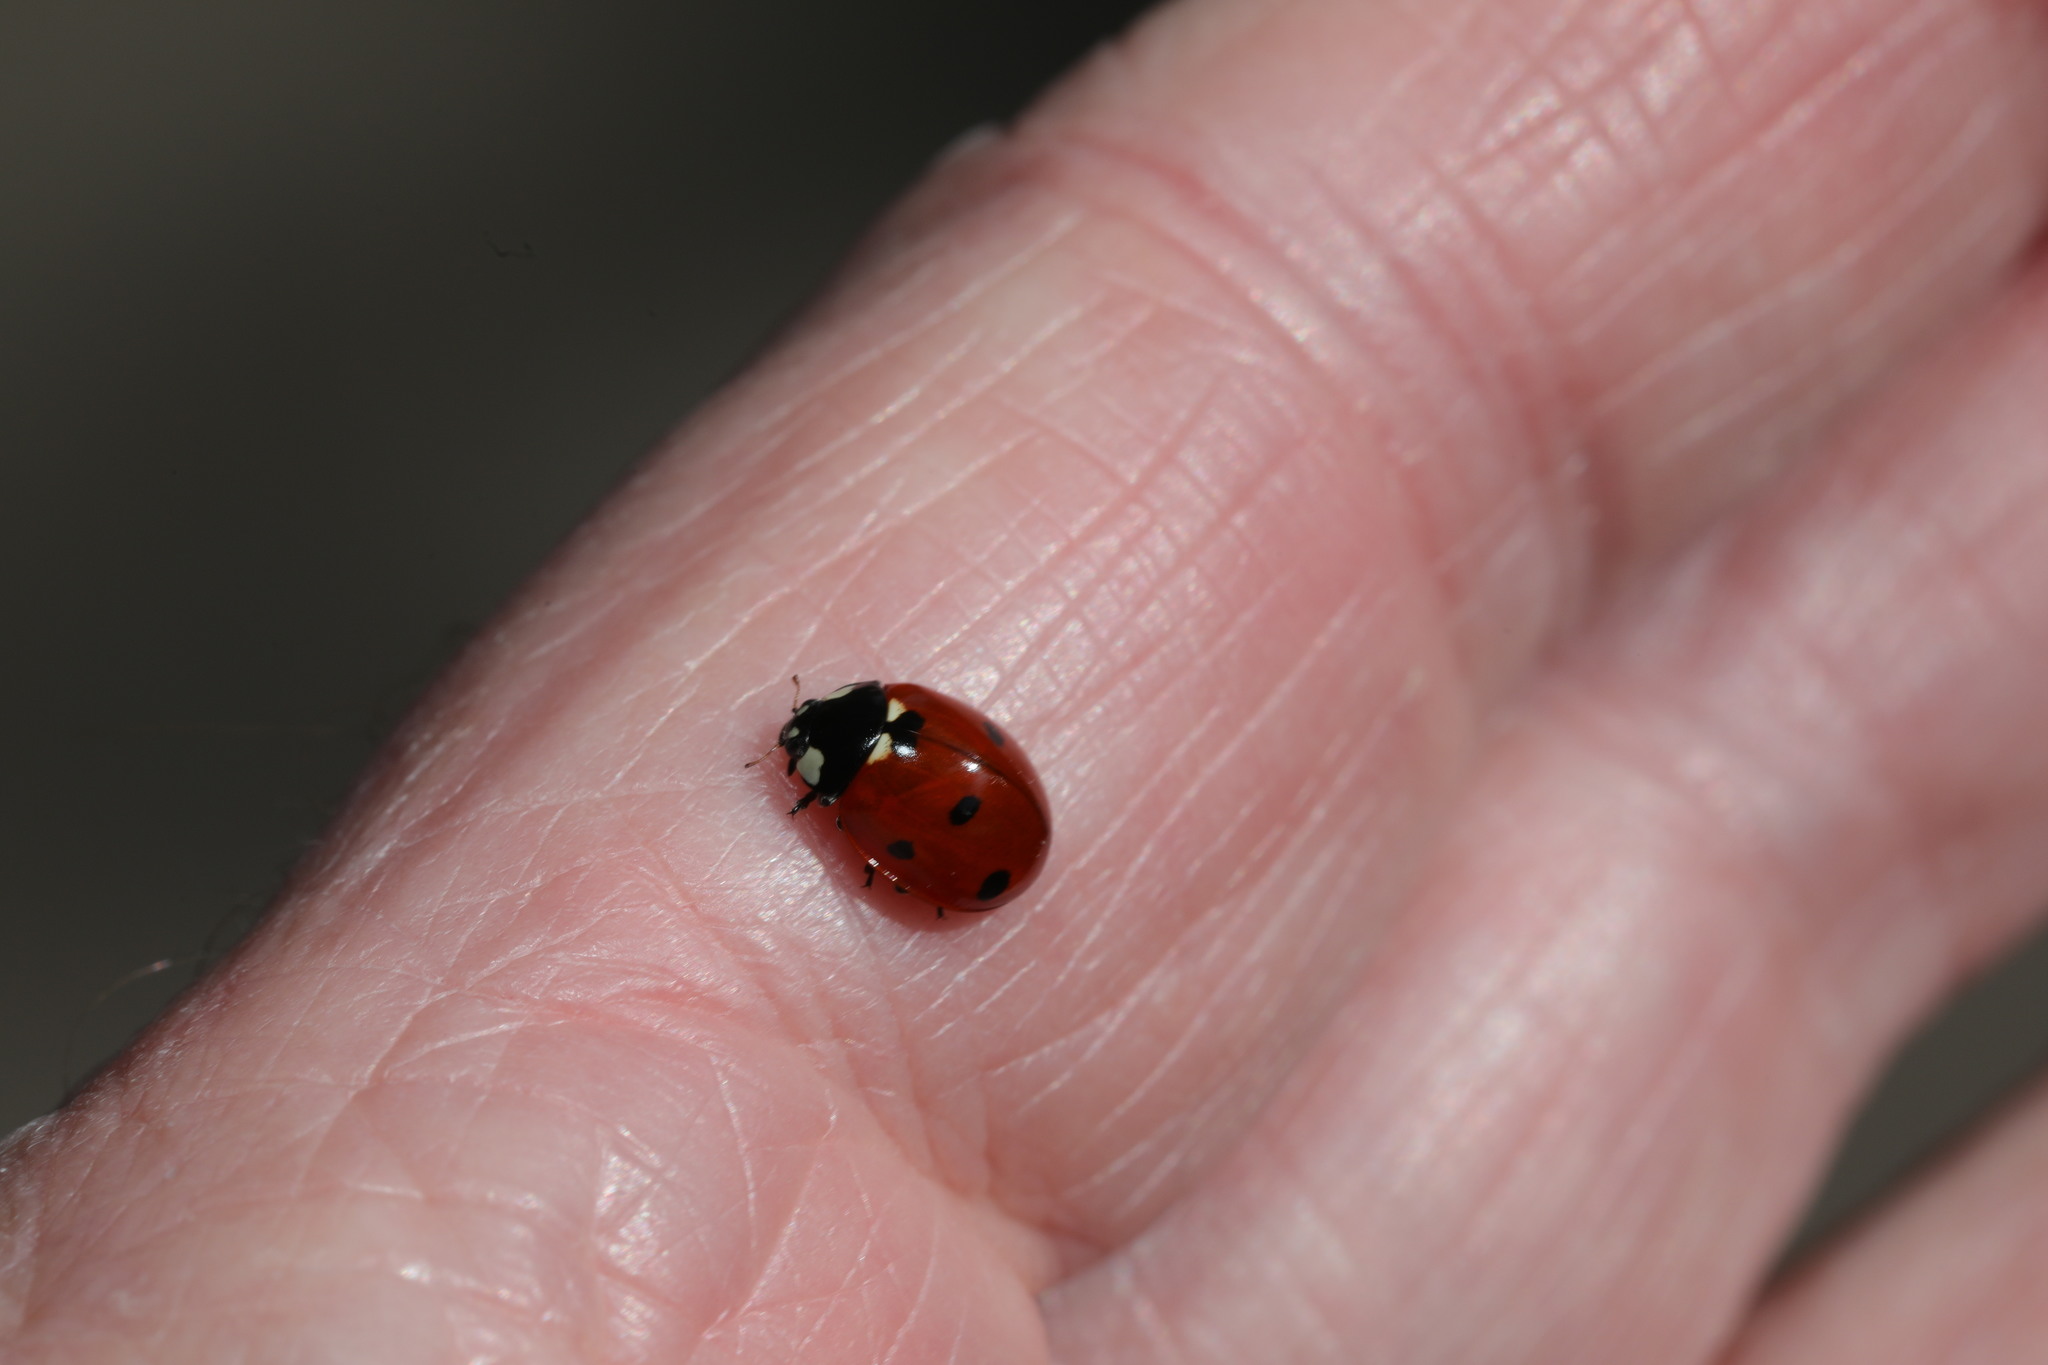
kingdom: Animalia
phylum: Arthropoda
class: Insecta
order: Coleoptera
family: Coccinellidae
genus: Coccinella
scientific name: Coccinella septempunctata
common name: Sevenspotted lady beetle
